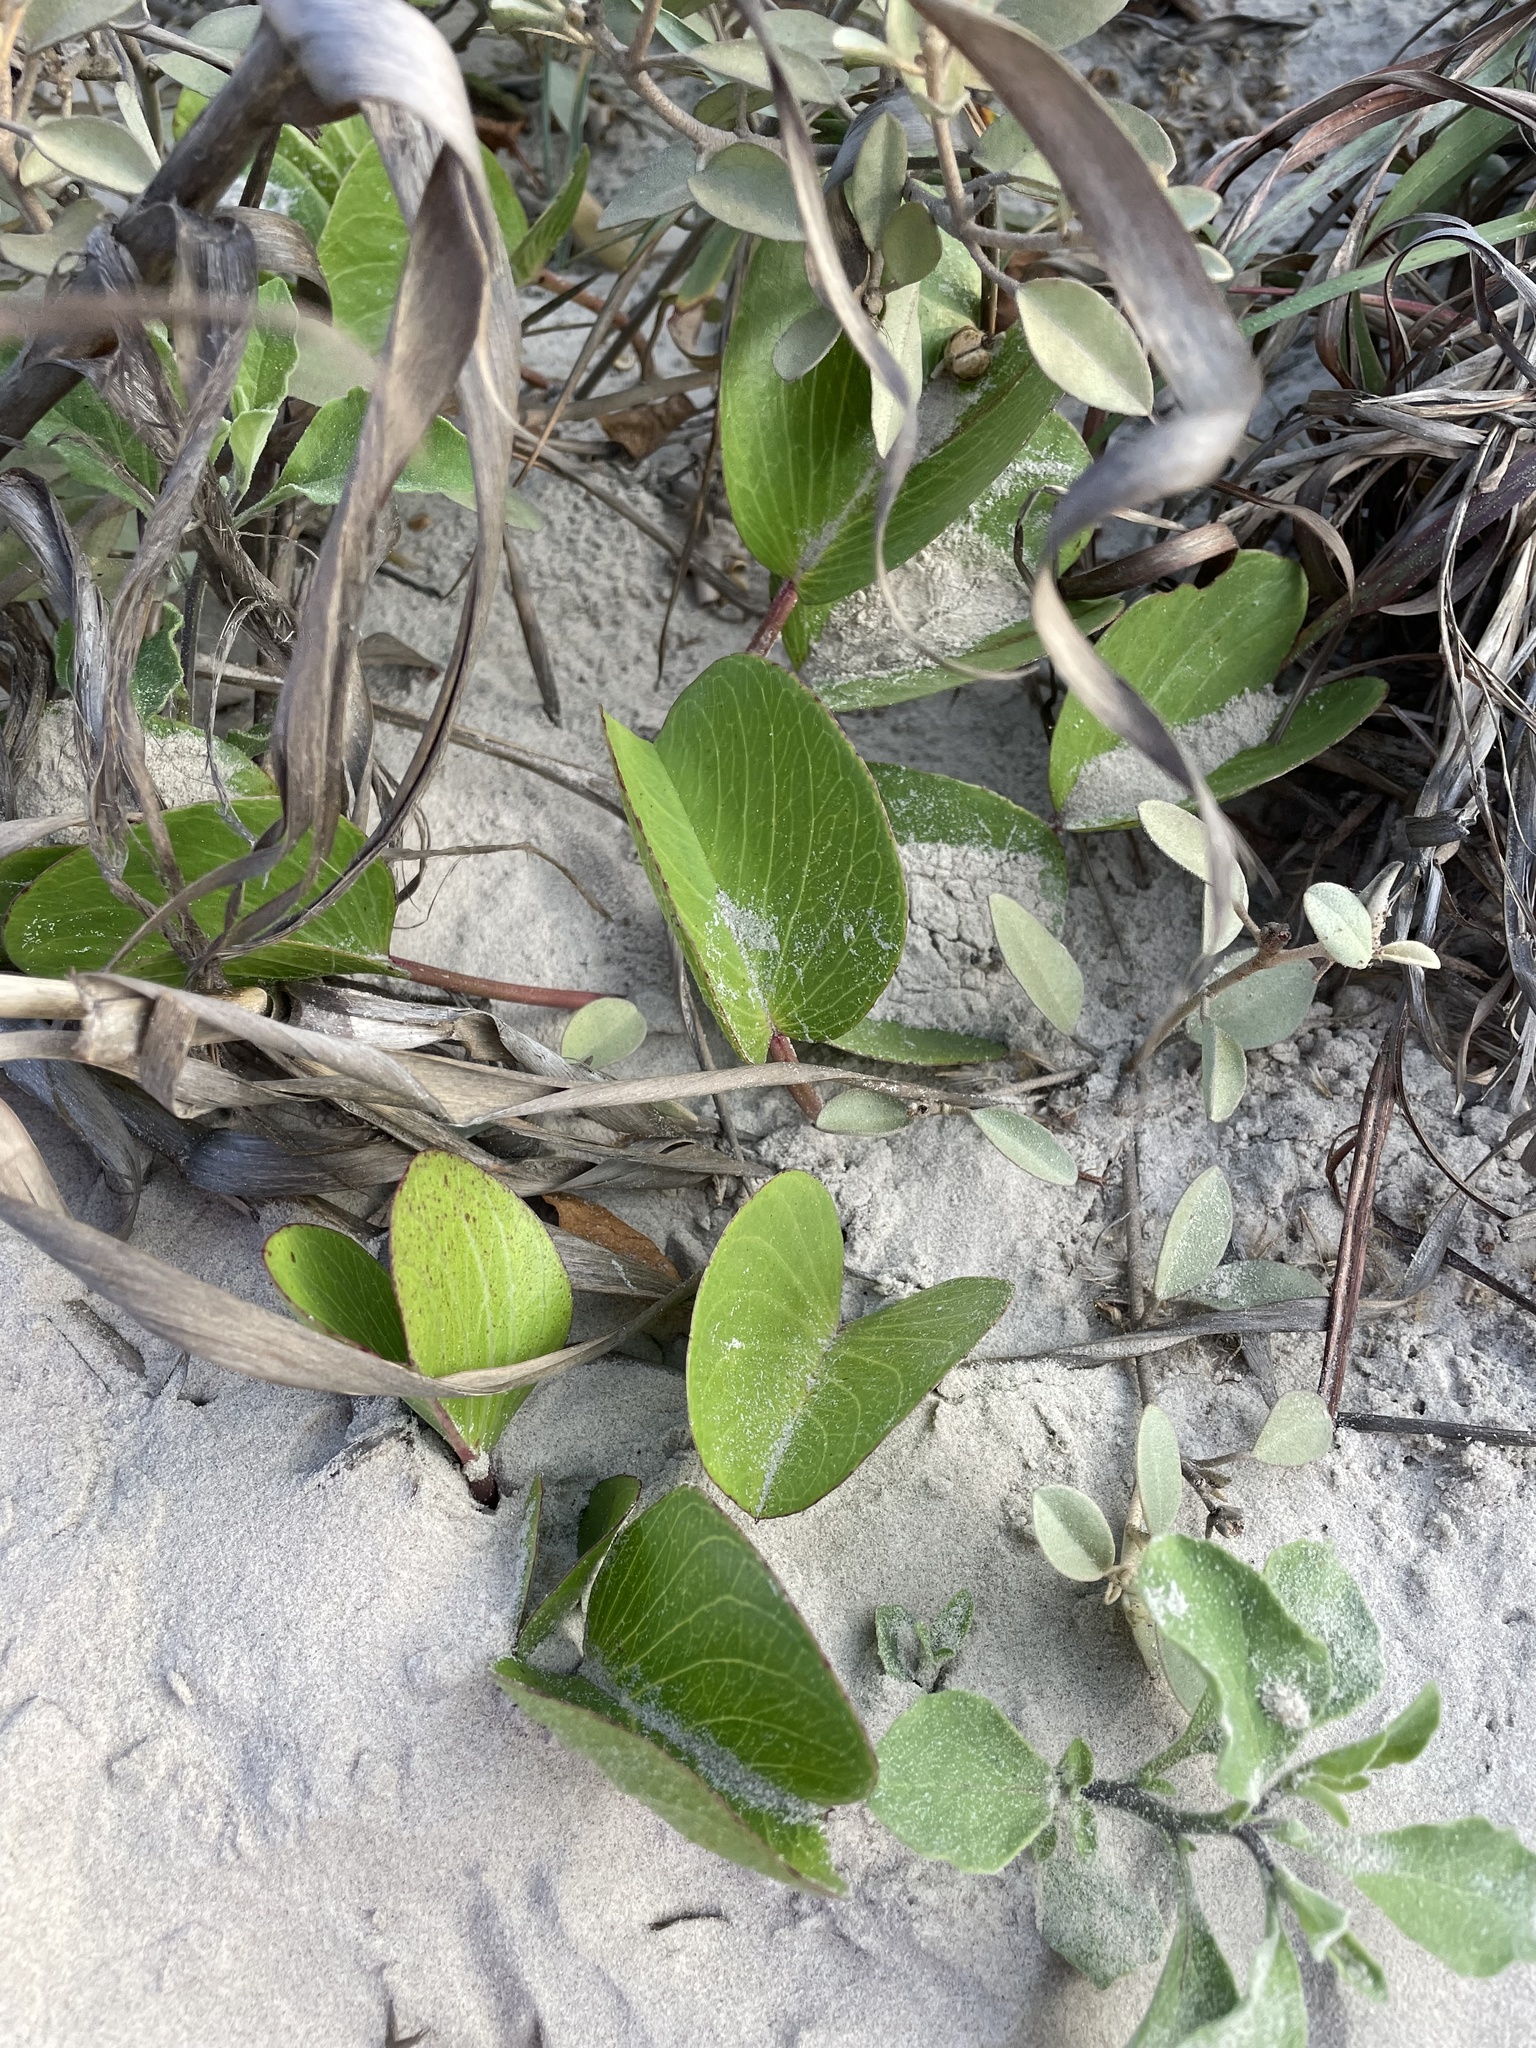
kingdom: Plantae
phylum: Tracheophyta
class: Magnoliopsida
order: Solanales
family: Convolvulaceae
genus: Ipomoea
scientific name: Ipomoea pes-caprae
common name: Beach morning glory
